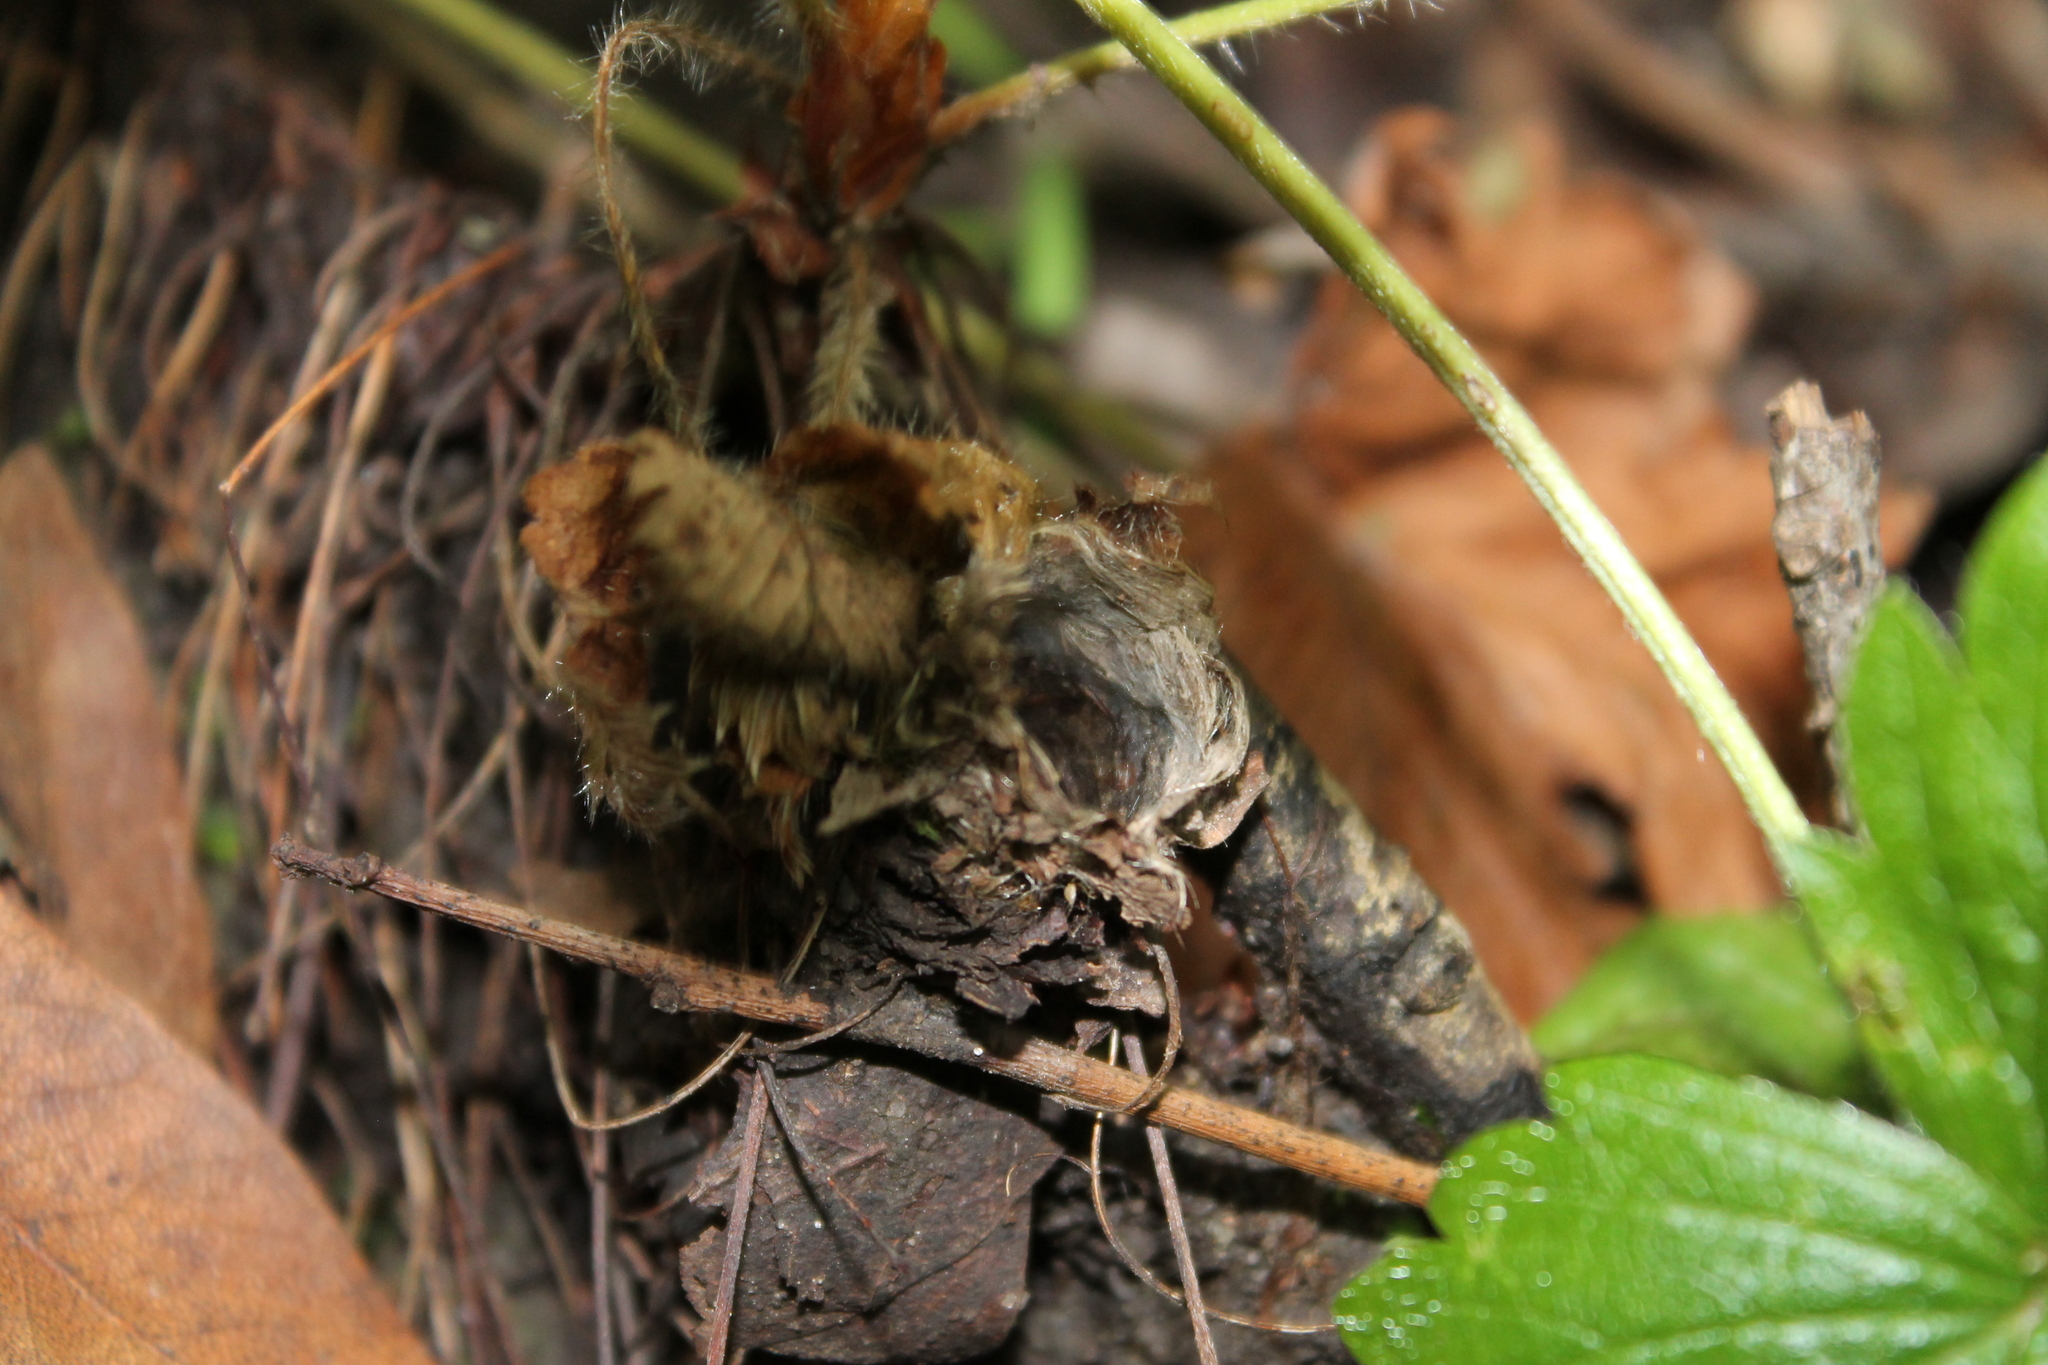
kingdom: Animalia
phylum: Arthropoda
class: Arachnida
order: Araneae
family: Antrodiaetidae
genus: Atypoides
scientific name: Atypoides riversi
